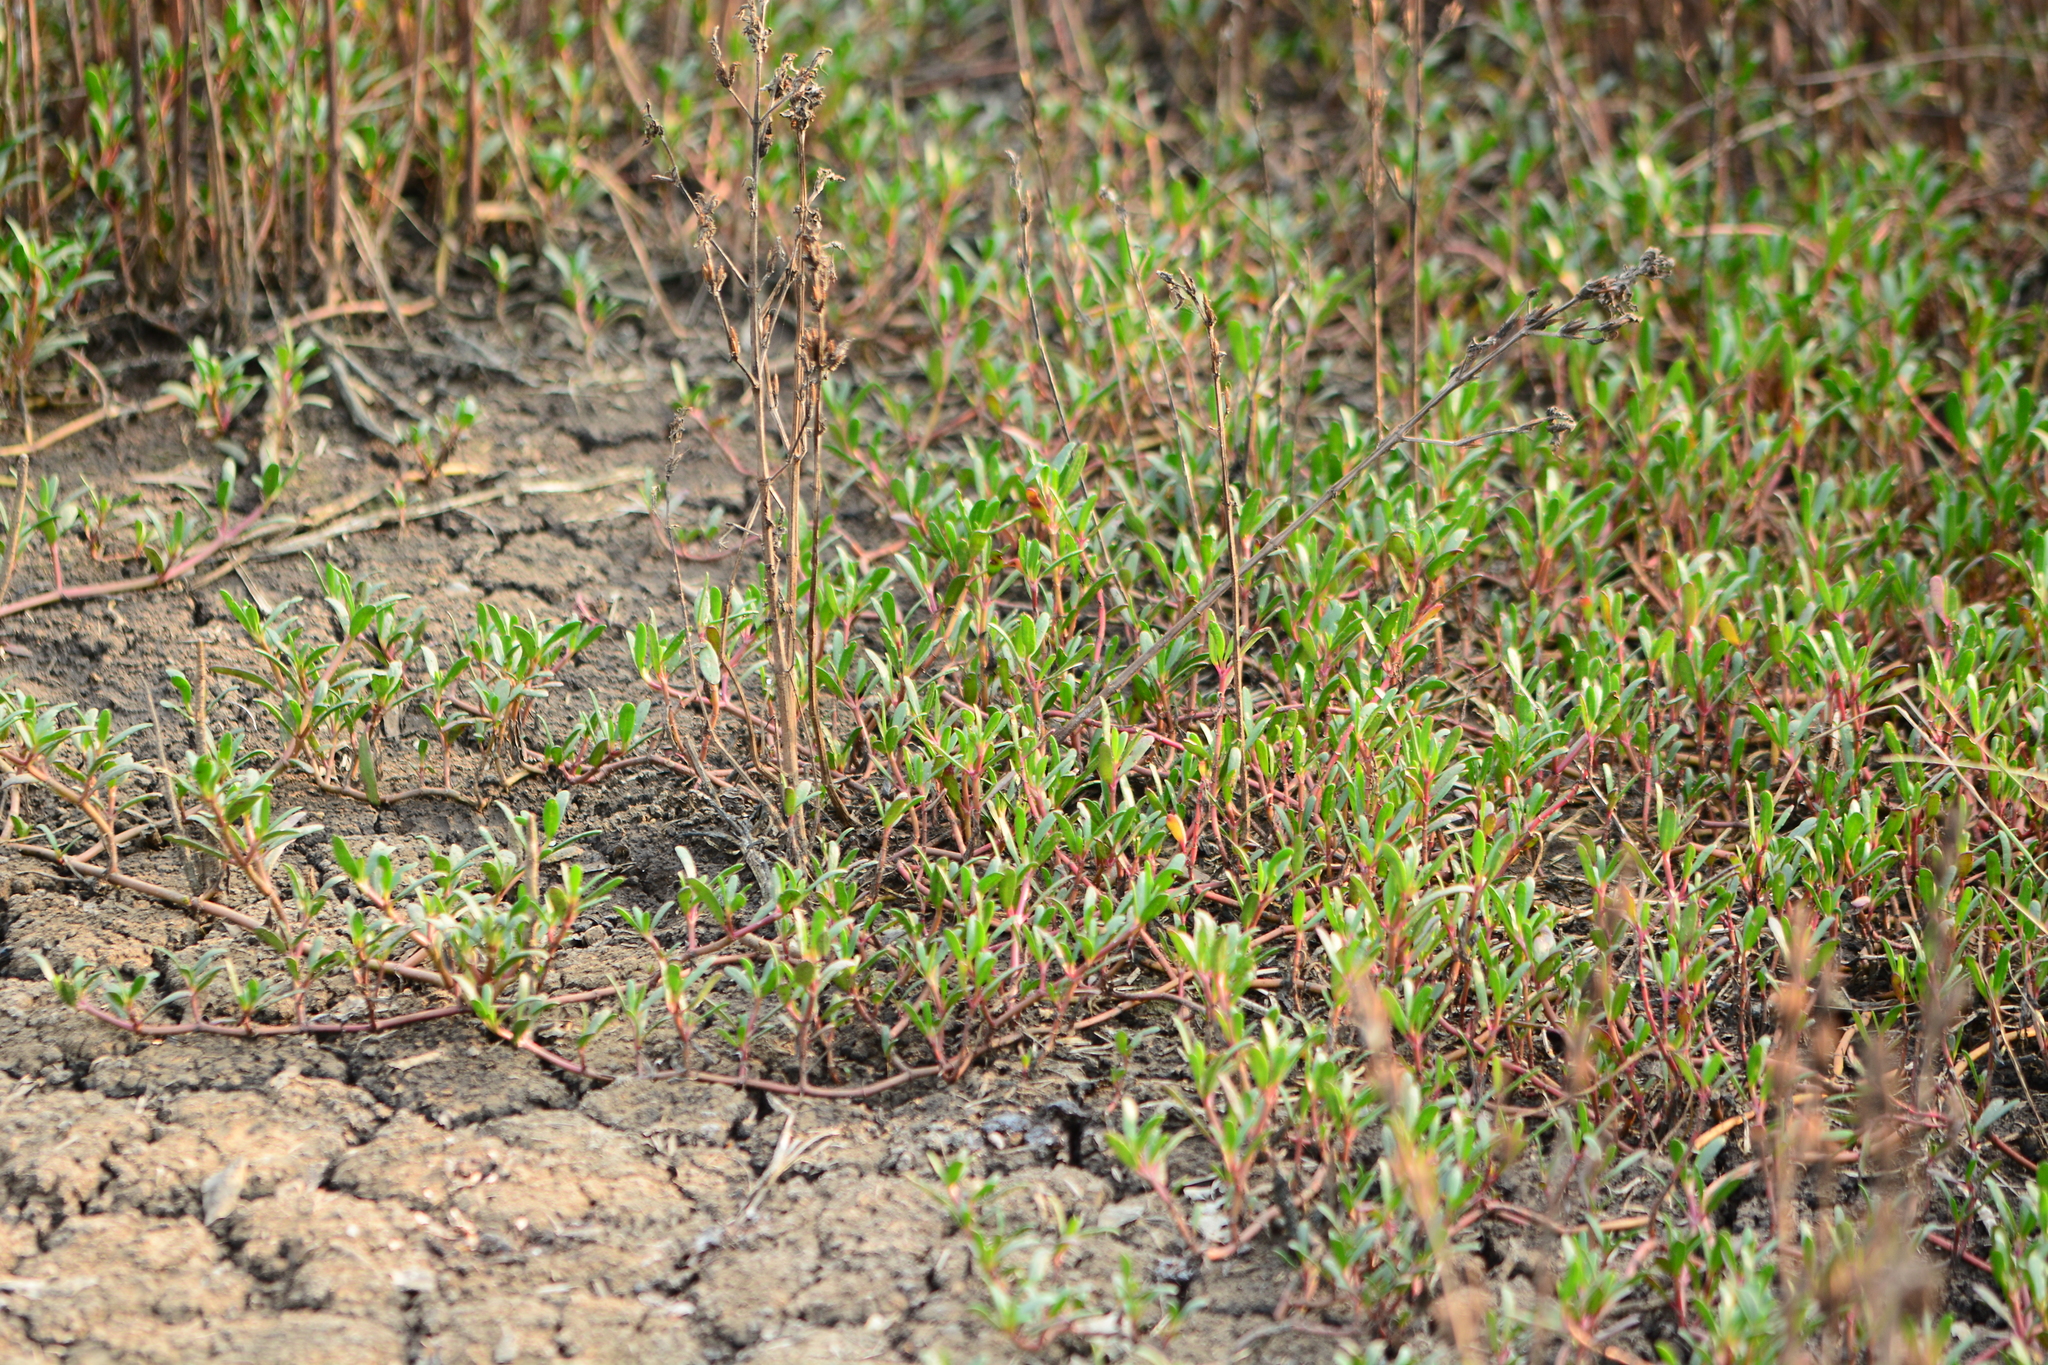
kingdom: Plantae
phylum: Tracheophyta
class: Magnoliopsida
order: Caryophyllales
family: Aizoaceae
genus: Sesuvium
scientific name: Sesuvium portulacastrum
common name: Sea-purslane
